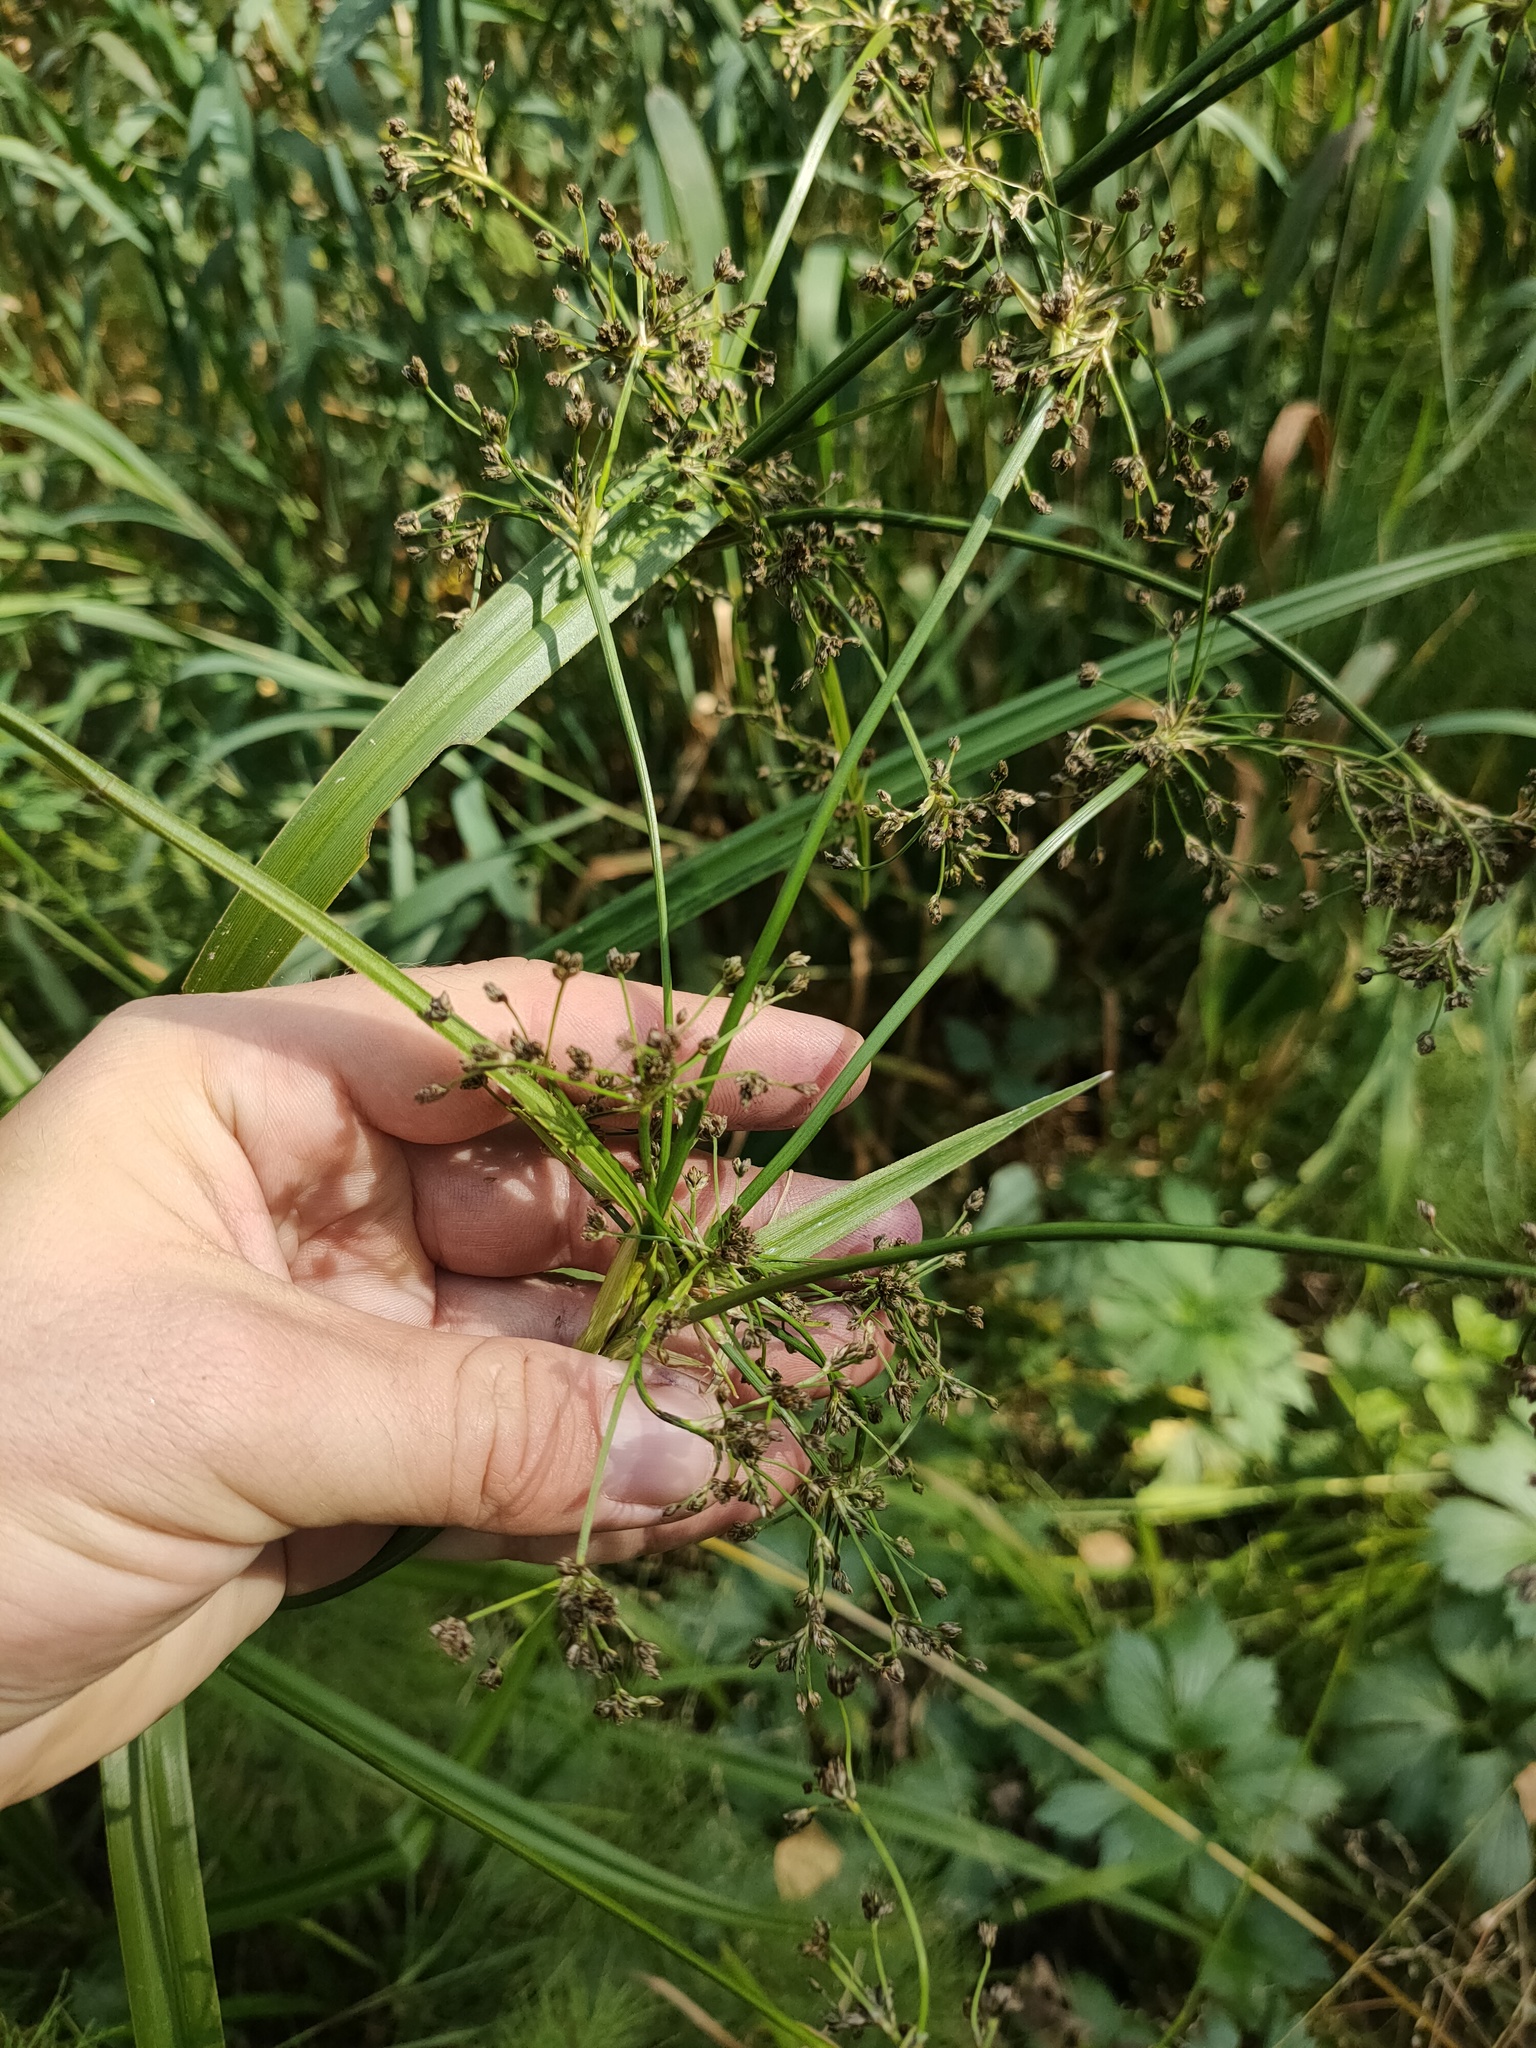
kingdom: Plantae
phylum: Tracheophyta
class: Liliopsida
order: Poales
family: Cyperaceae
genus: Scirpus
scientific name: Scirpus sylvaticus
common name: Wood club-rush
